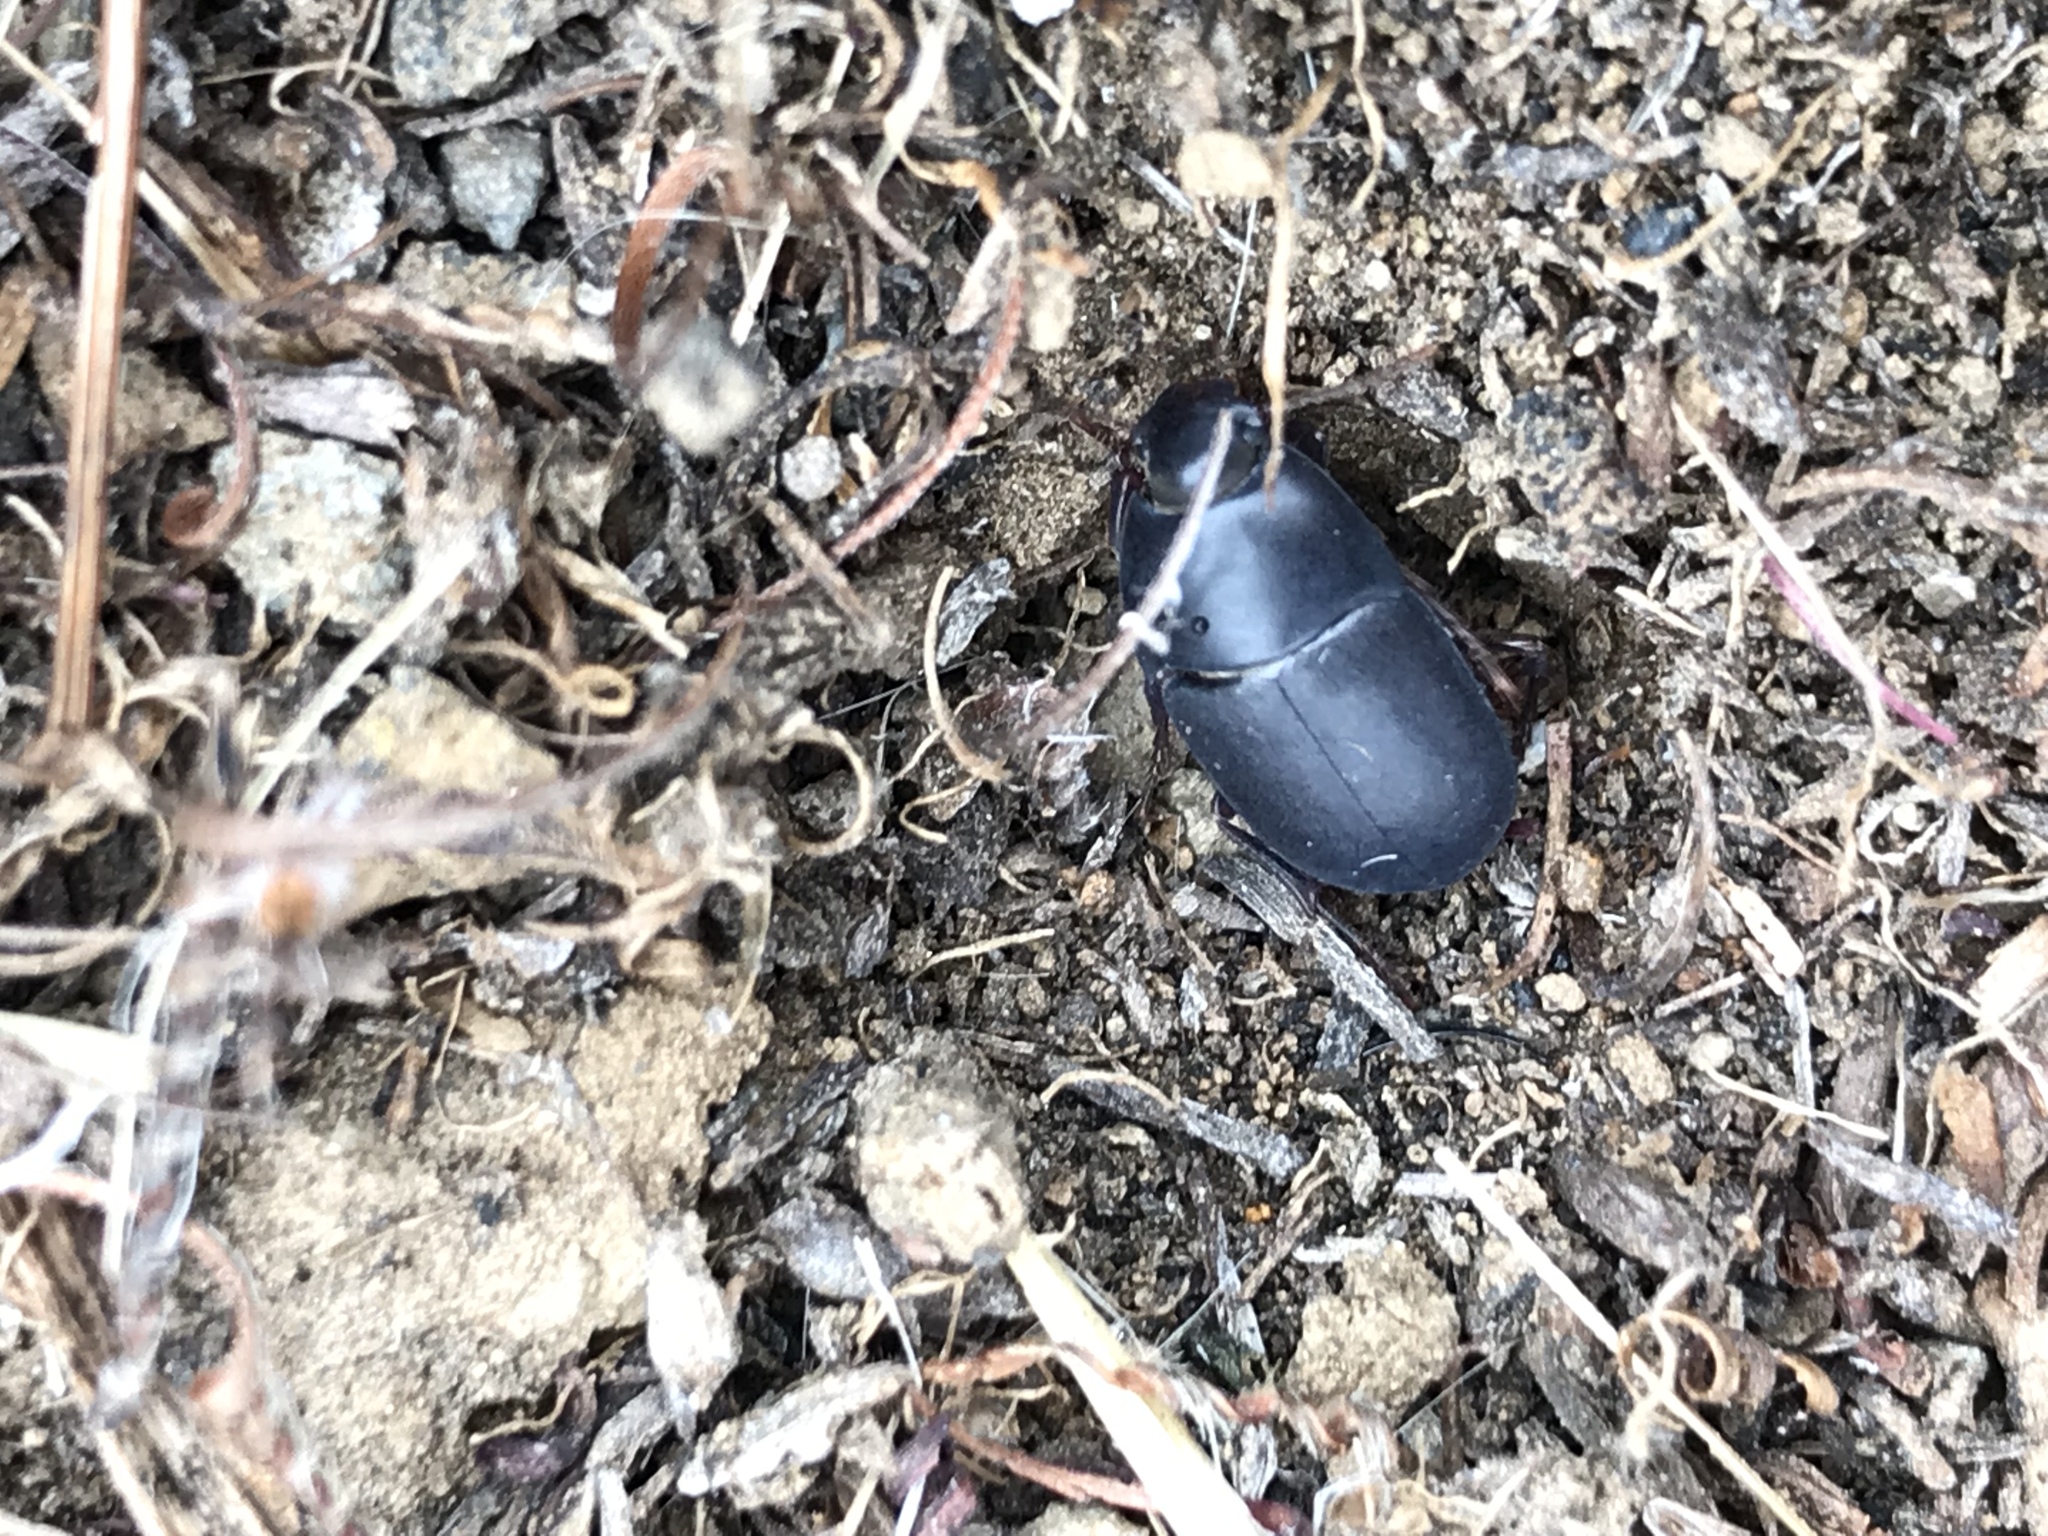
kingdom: Animalia
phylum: Arthropoda
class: Insecta
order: Coleoptera
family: Tenebrionidae
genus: Coniontis
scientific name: Coniontis
